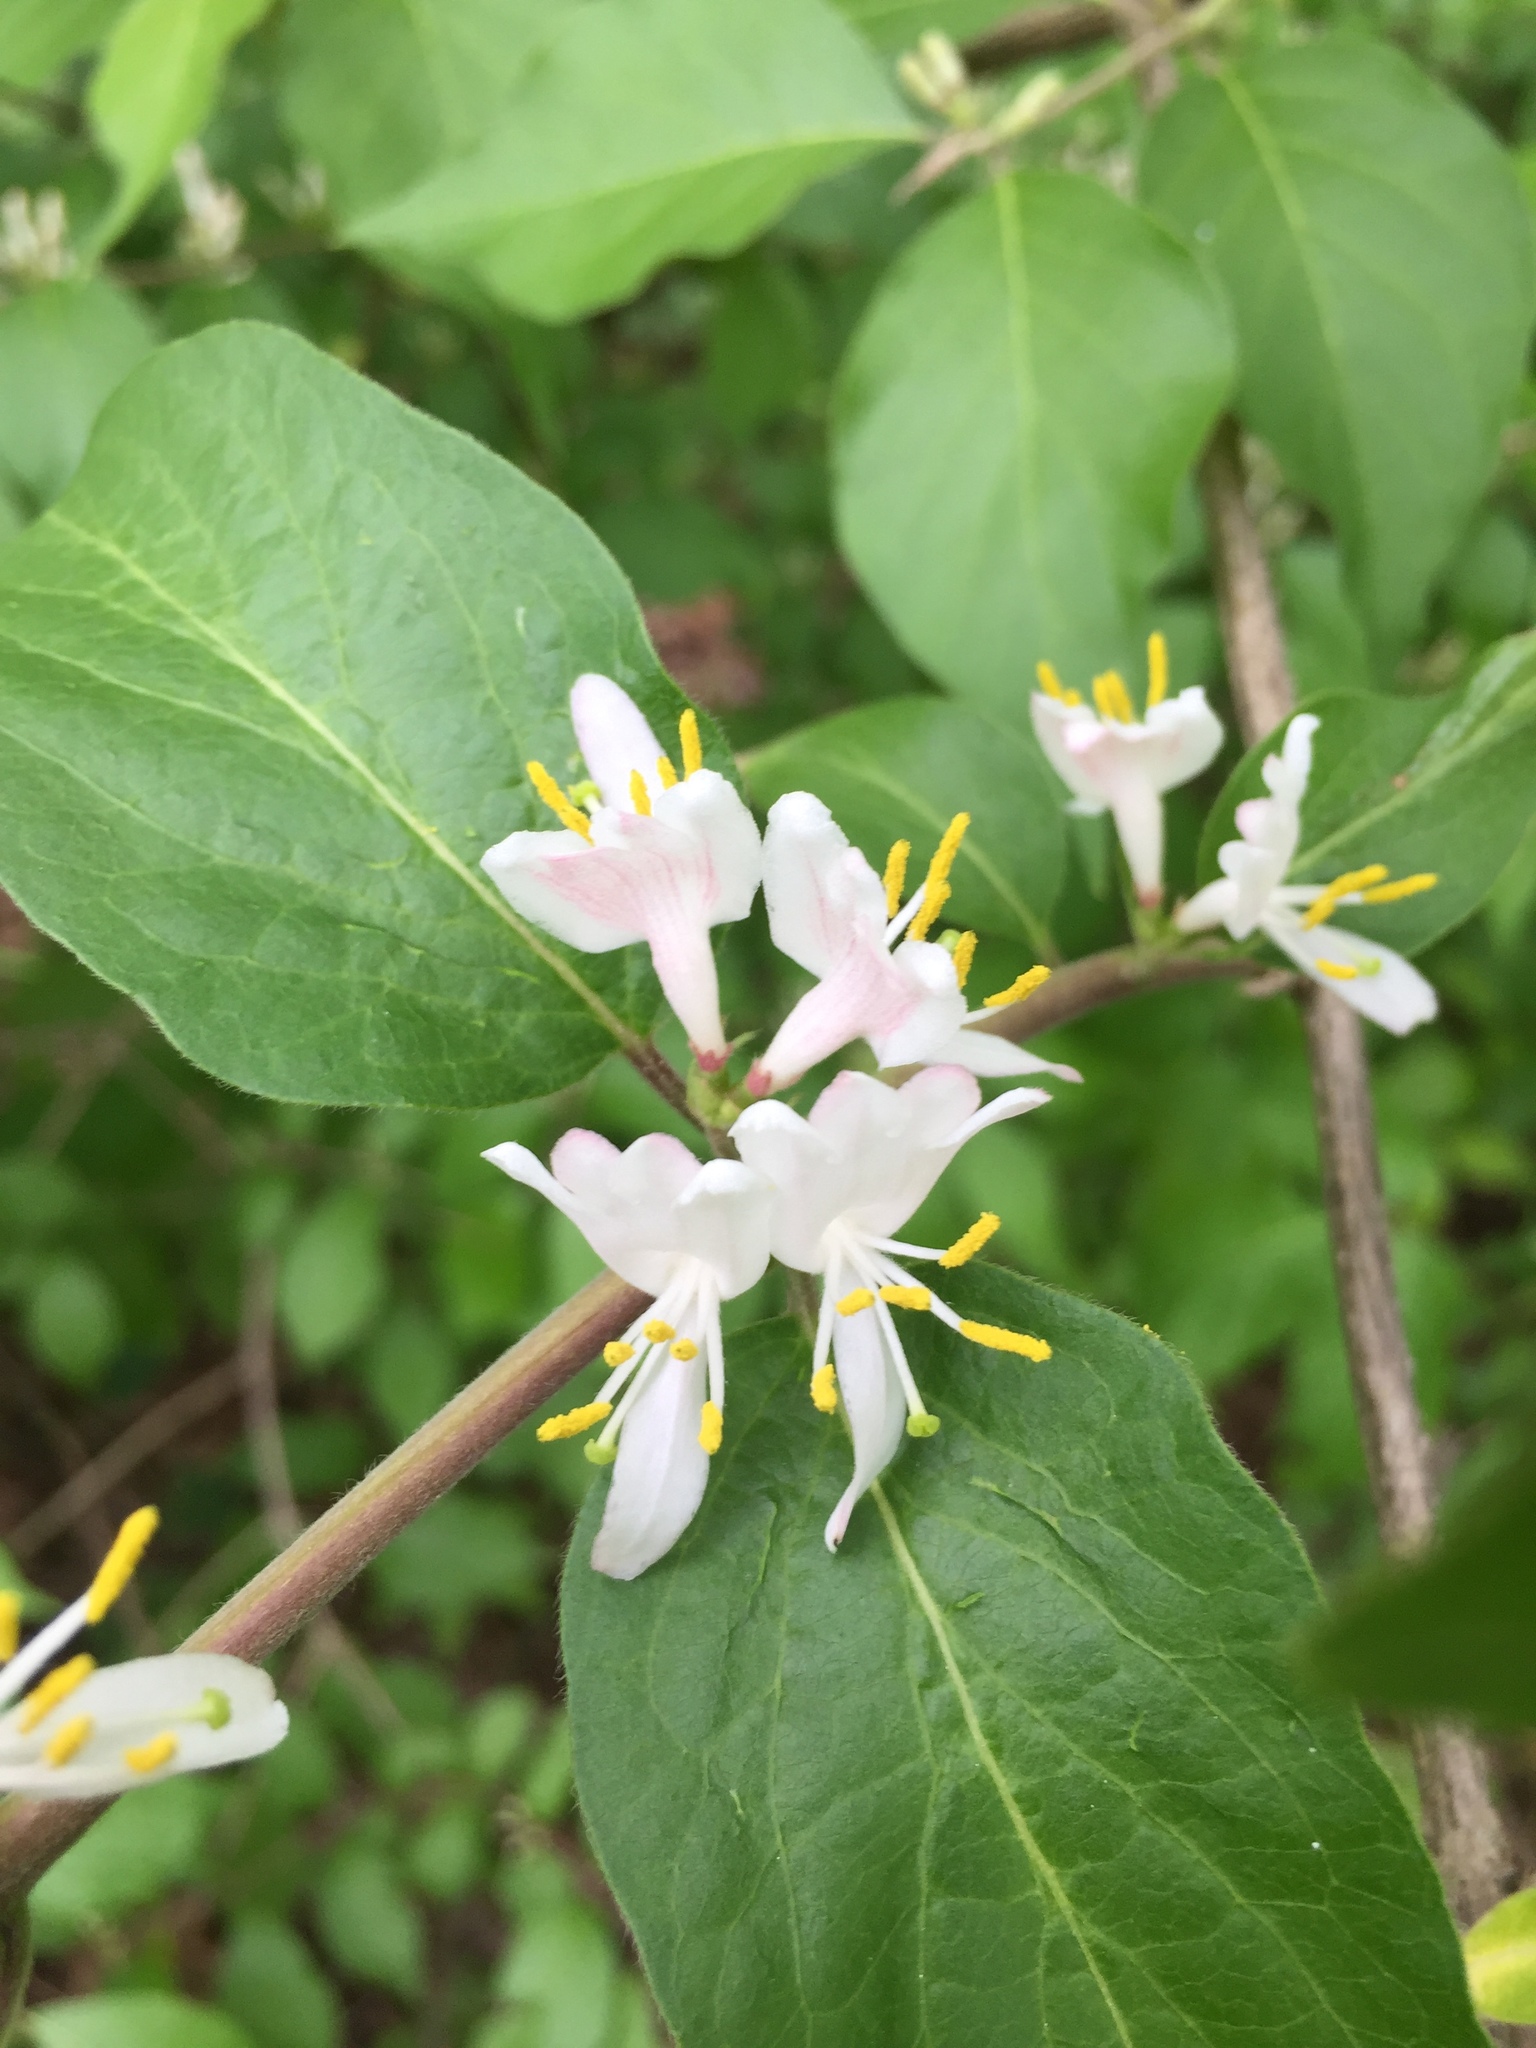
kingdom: Plantae
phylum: Tracheophyta
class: Magnoliopsida
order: Dipsacales
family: Caprifoliaceae
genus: Lonicera
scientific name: Lonicera maackii
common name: Amur honeysuckle
